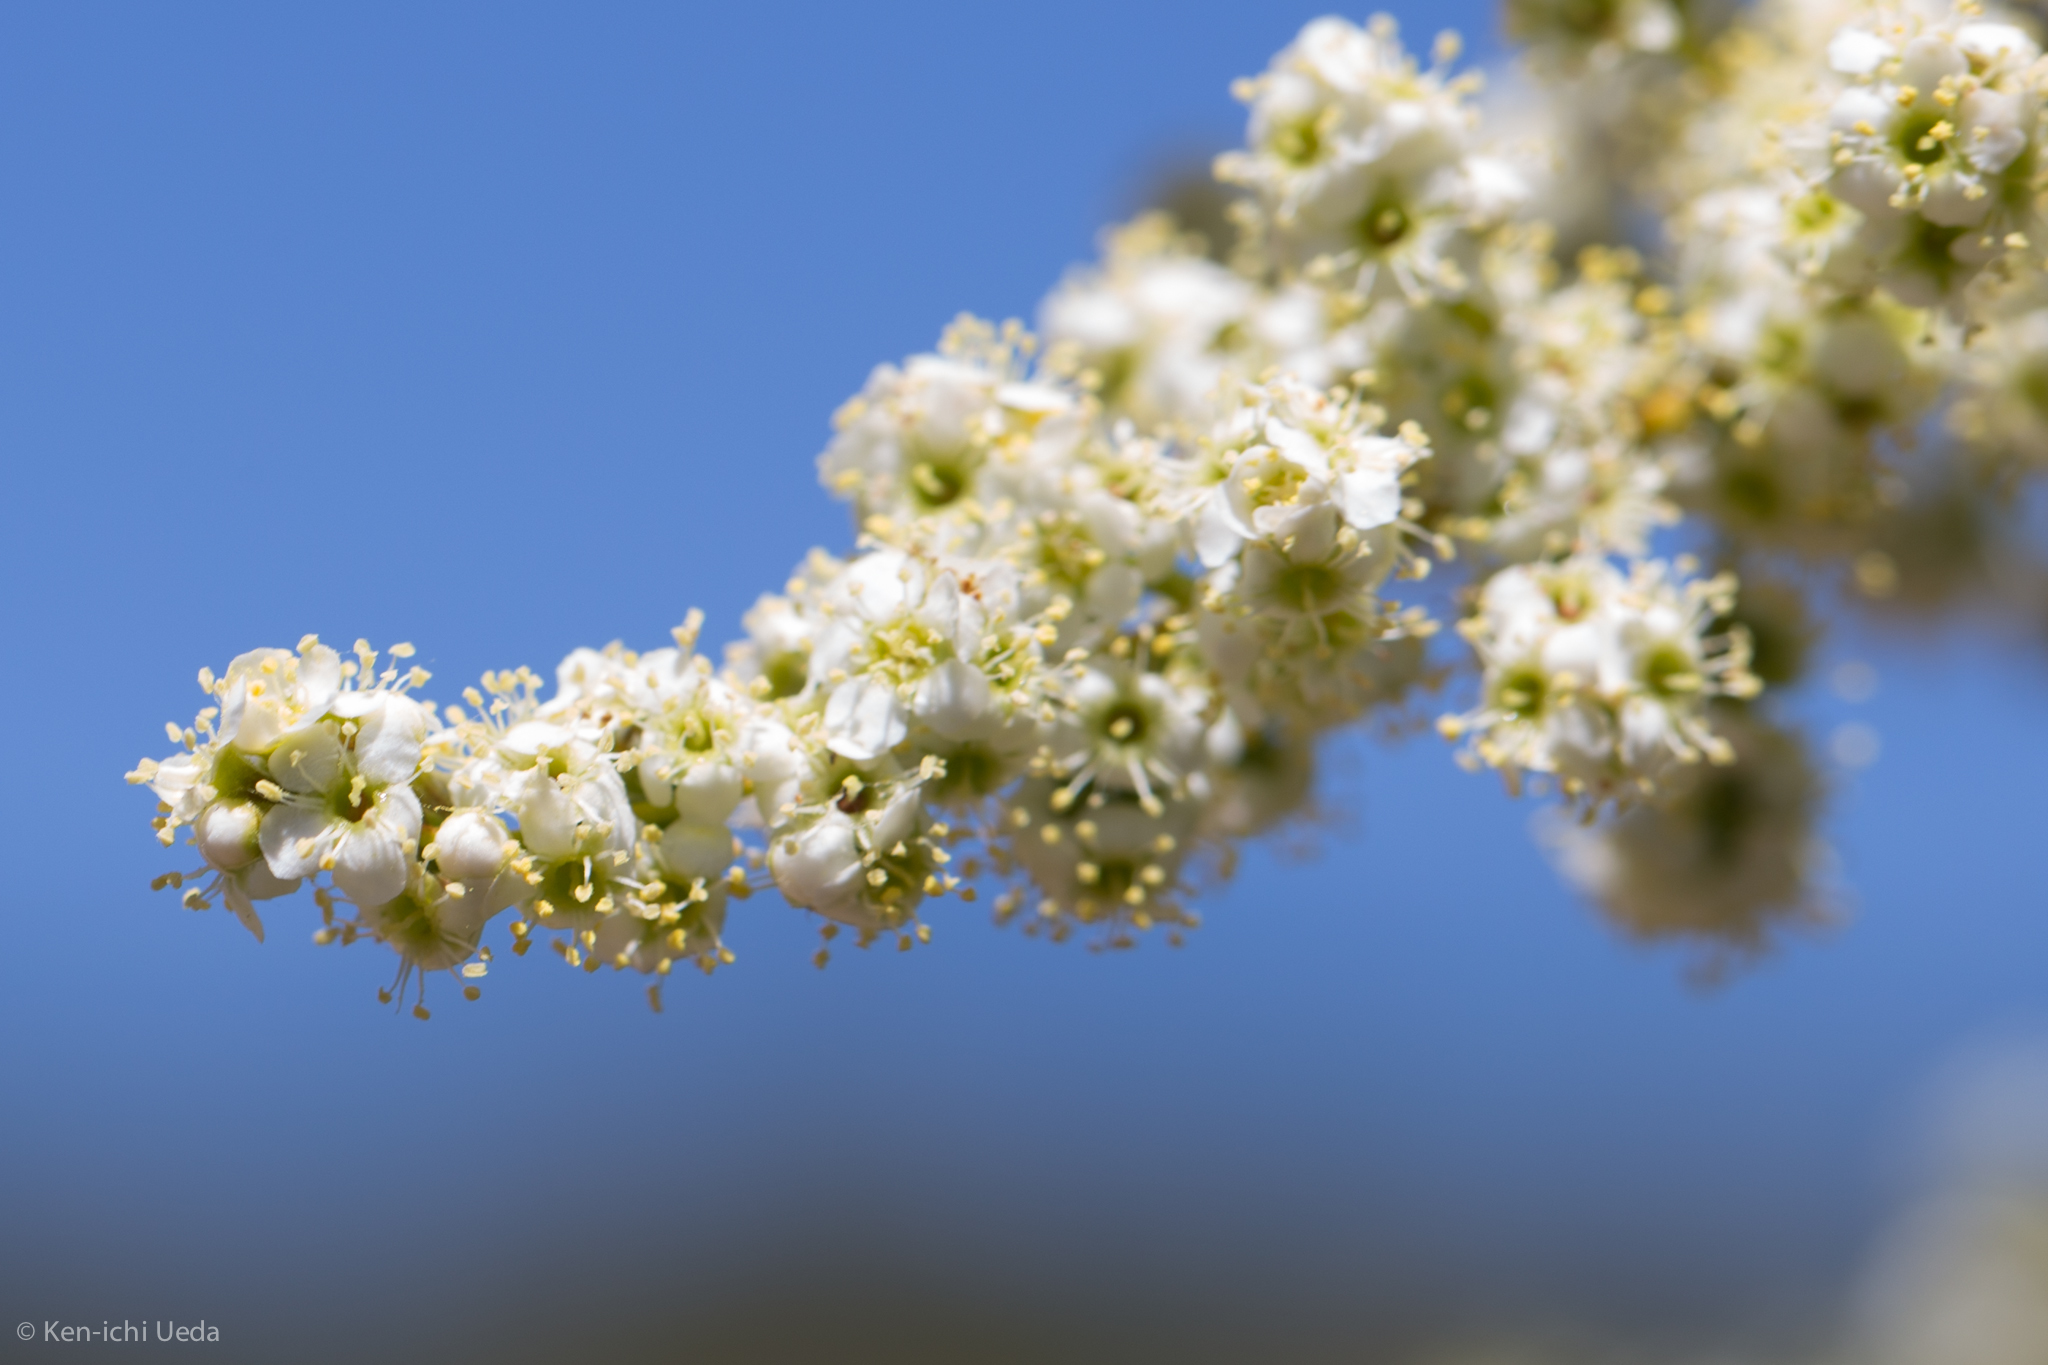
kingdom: Plantae
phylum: Tracheophyta
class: Magnoliopsida
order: Rosales
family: Rosaceae
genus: Adenostoma
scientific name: Adenostoma fasciculatum
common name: Chamise
